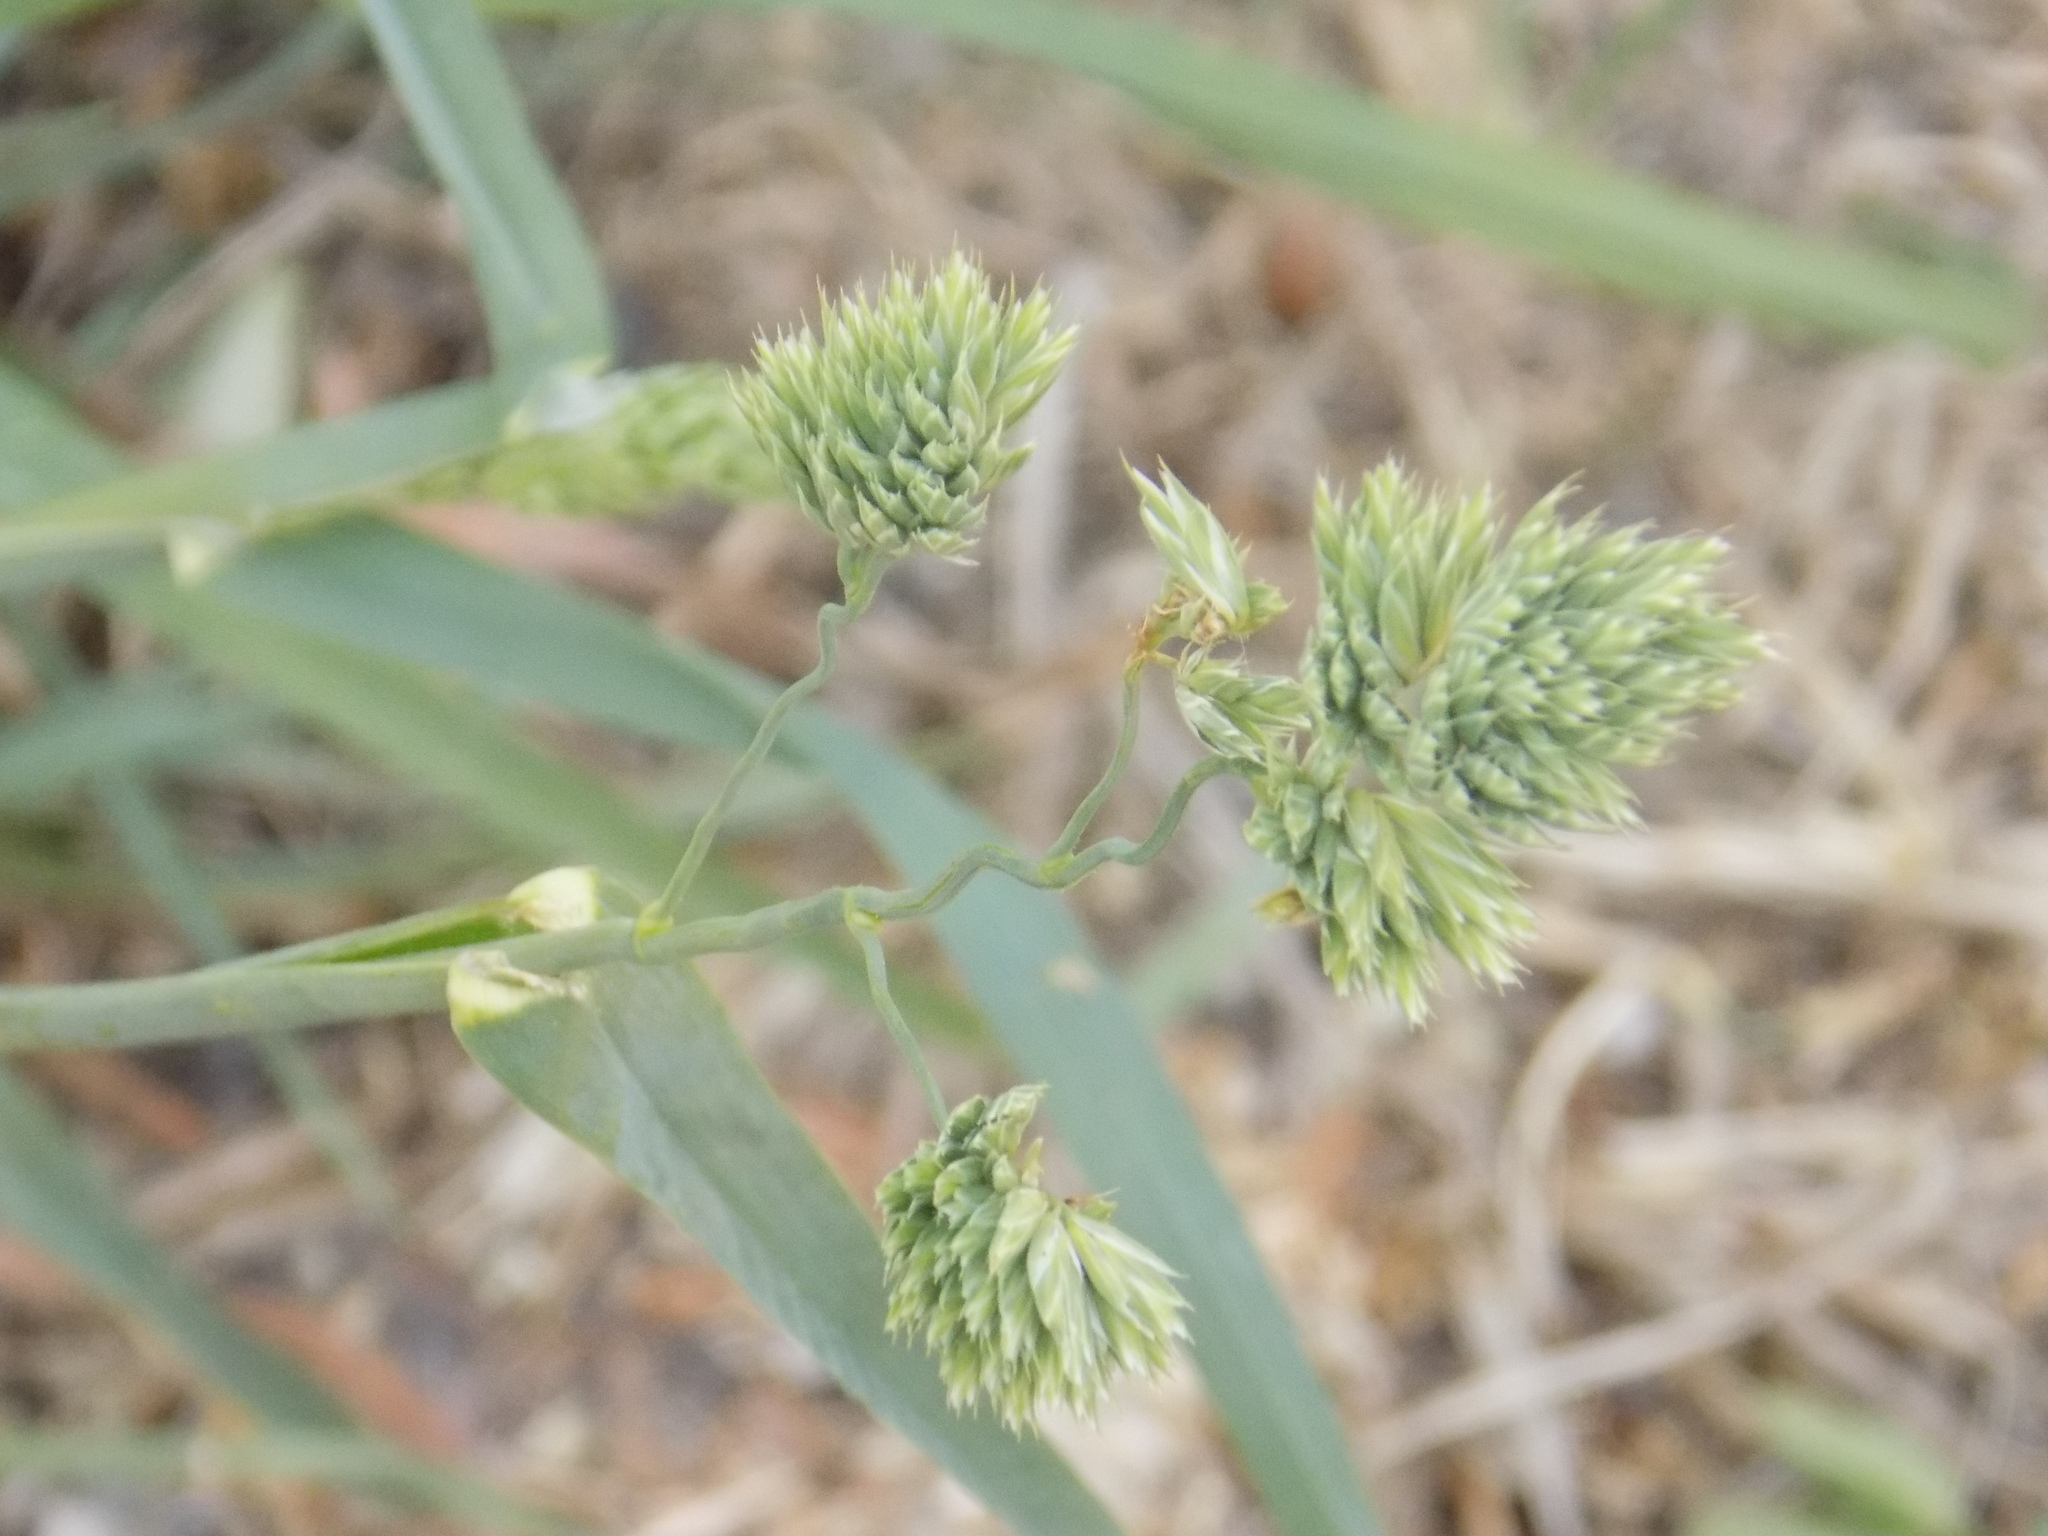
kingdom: Plantae
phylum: Tracheophyta
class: Liliopsida
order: Poales
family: Poaceae
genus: Dactylis
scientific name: Dactylis glomerata
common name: Orchardgrass
